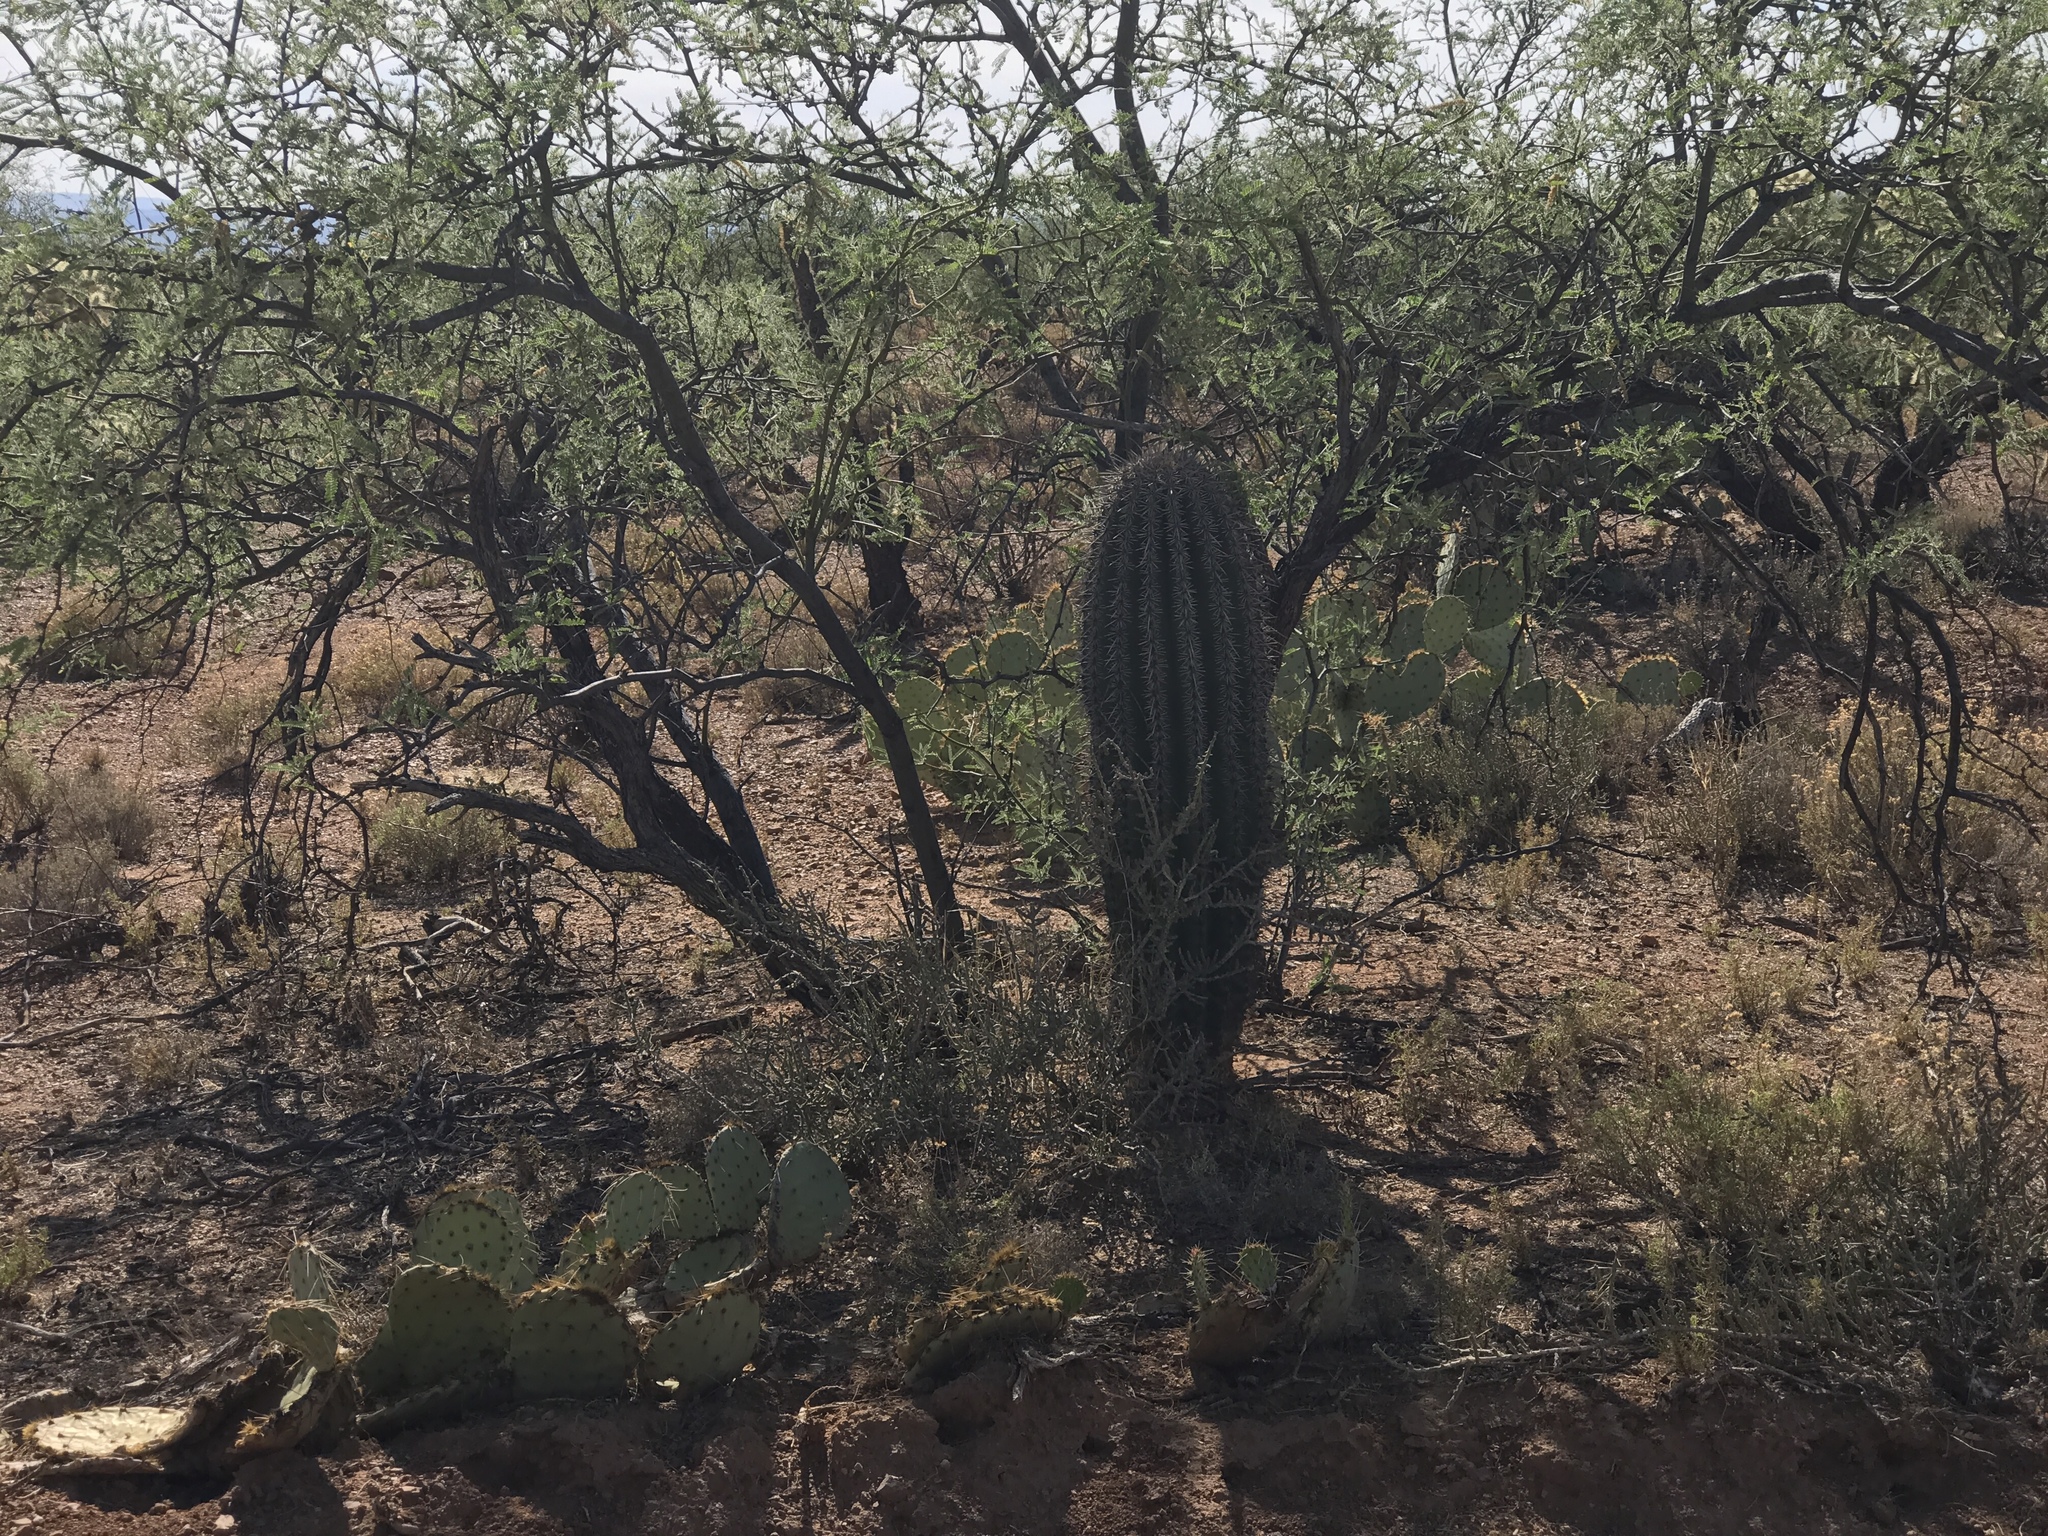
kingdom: Plantae
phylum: Tracheophyta
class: Magnoliopsida
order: Caryophyllales
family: Cactaceae
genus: Carnegiea
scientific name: Carnegiea gigantea
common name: Saguaro
